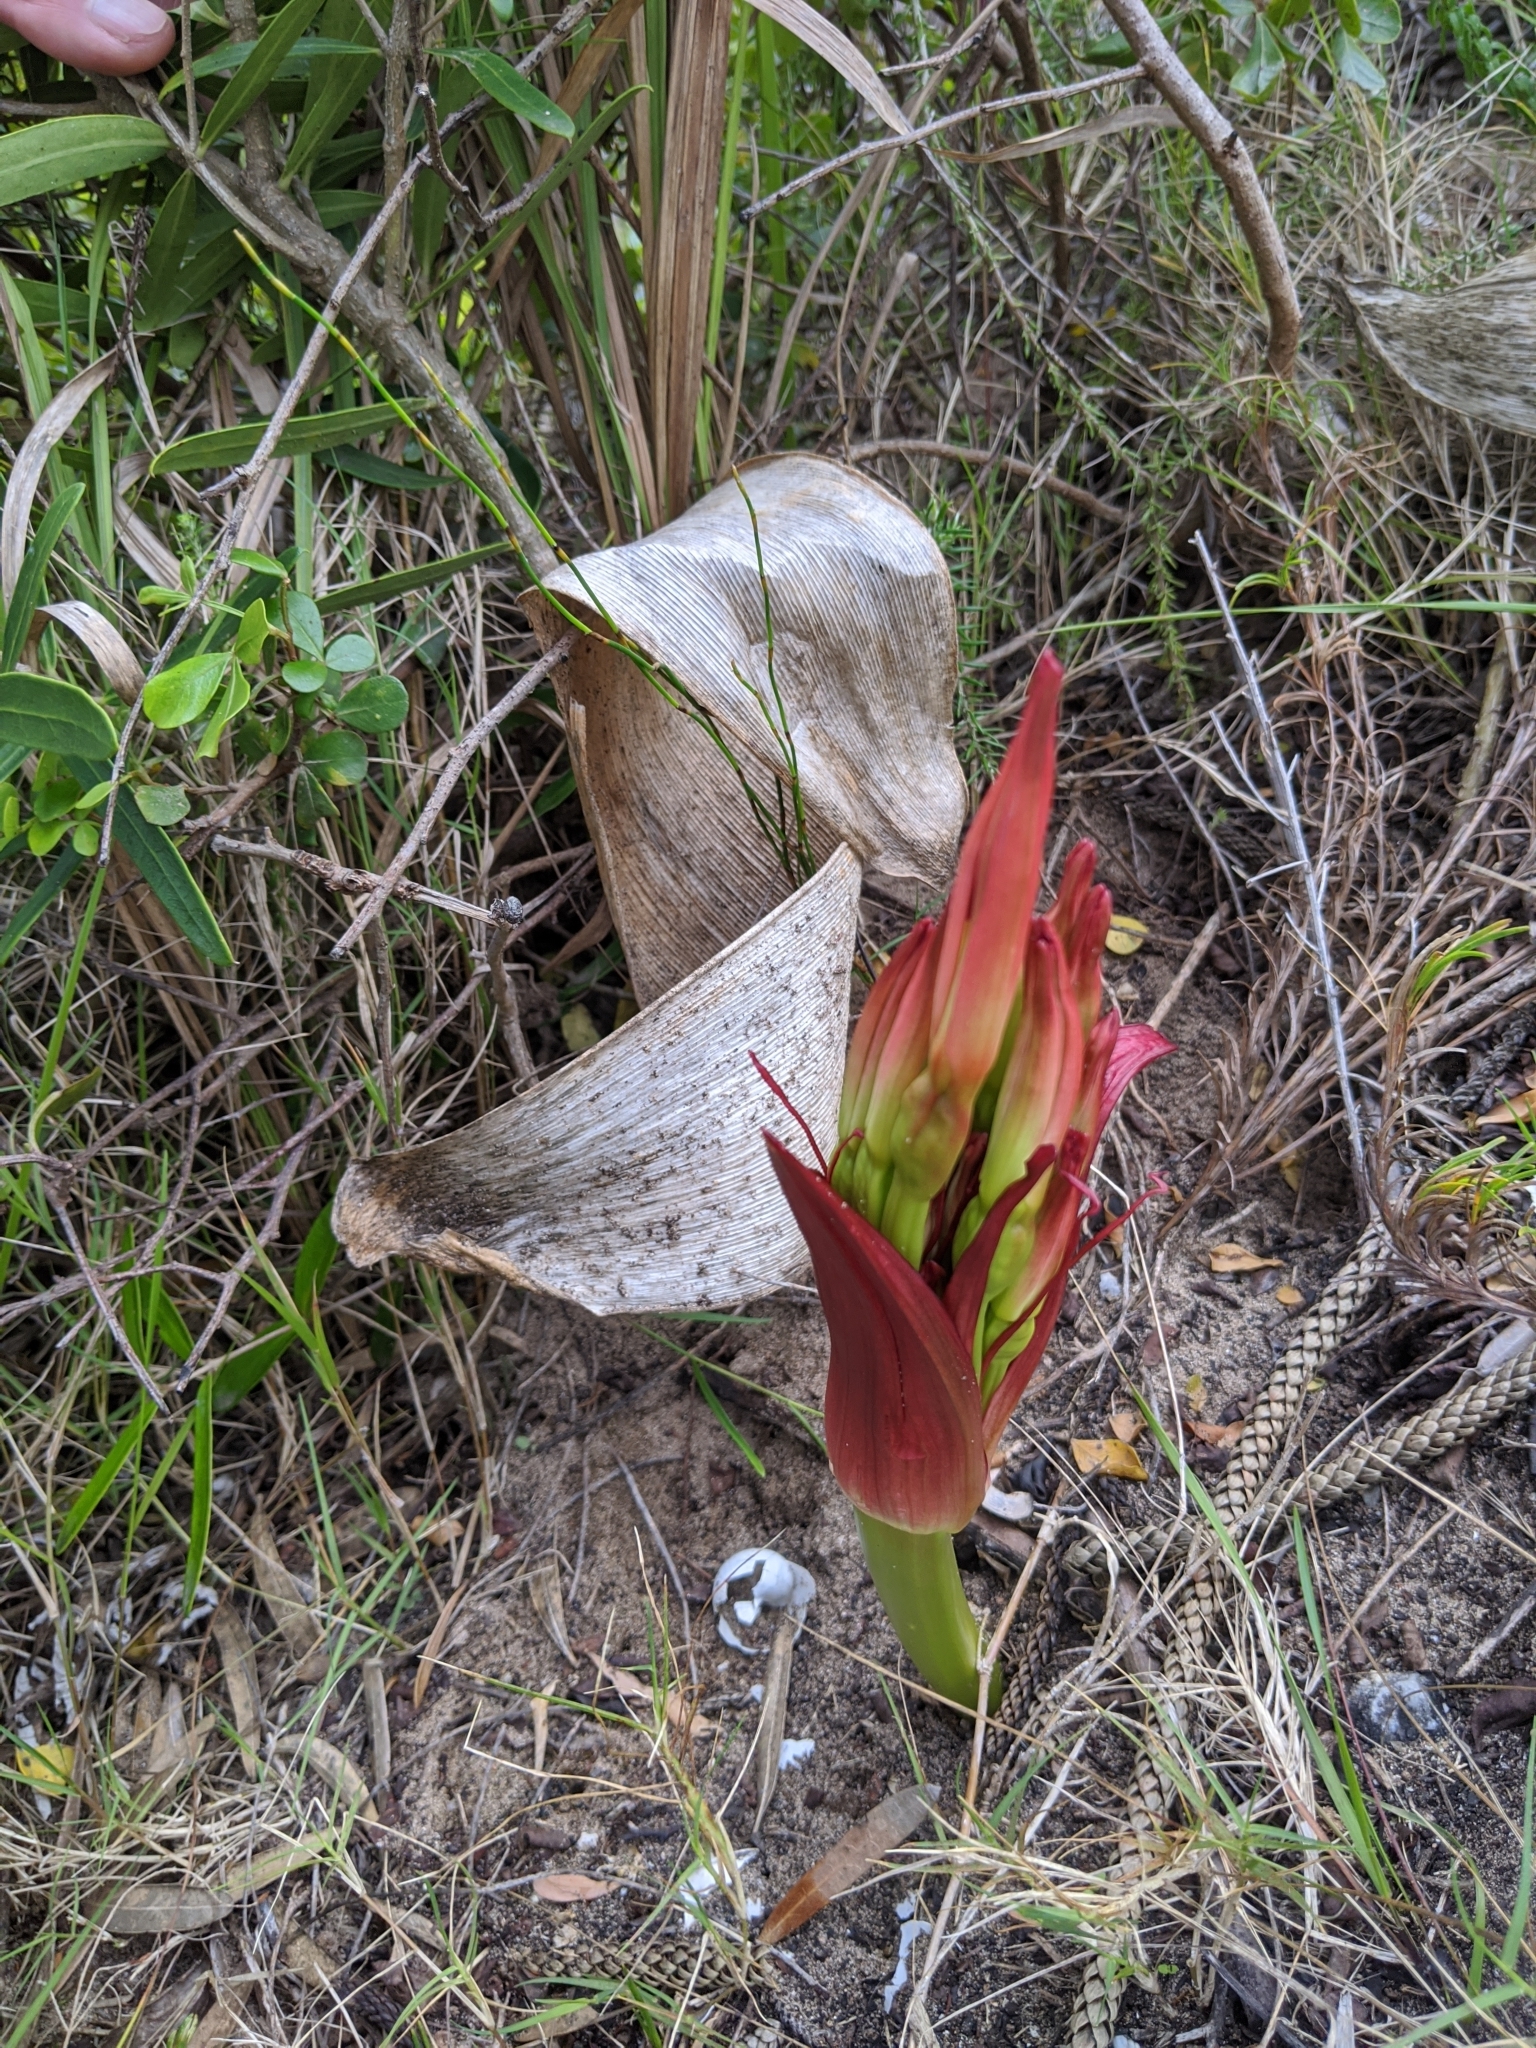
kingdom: Plantae
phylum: Tracheophyta
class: Liliopsida
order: Asparagales
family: Amaryllidaceae
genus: Brunsvigia
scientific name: Brunsvigia orientalis
